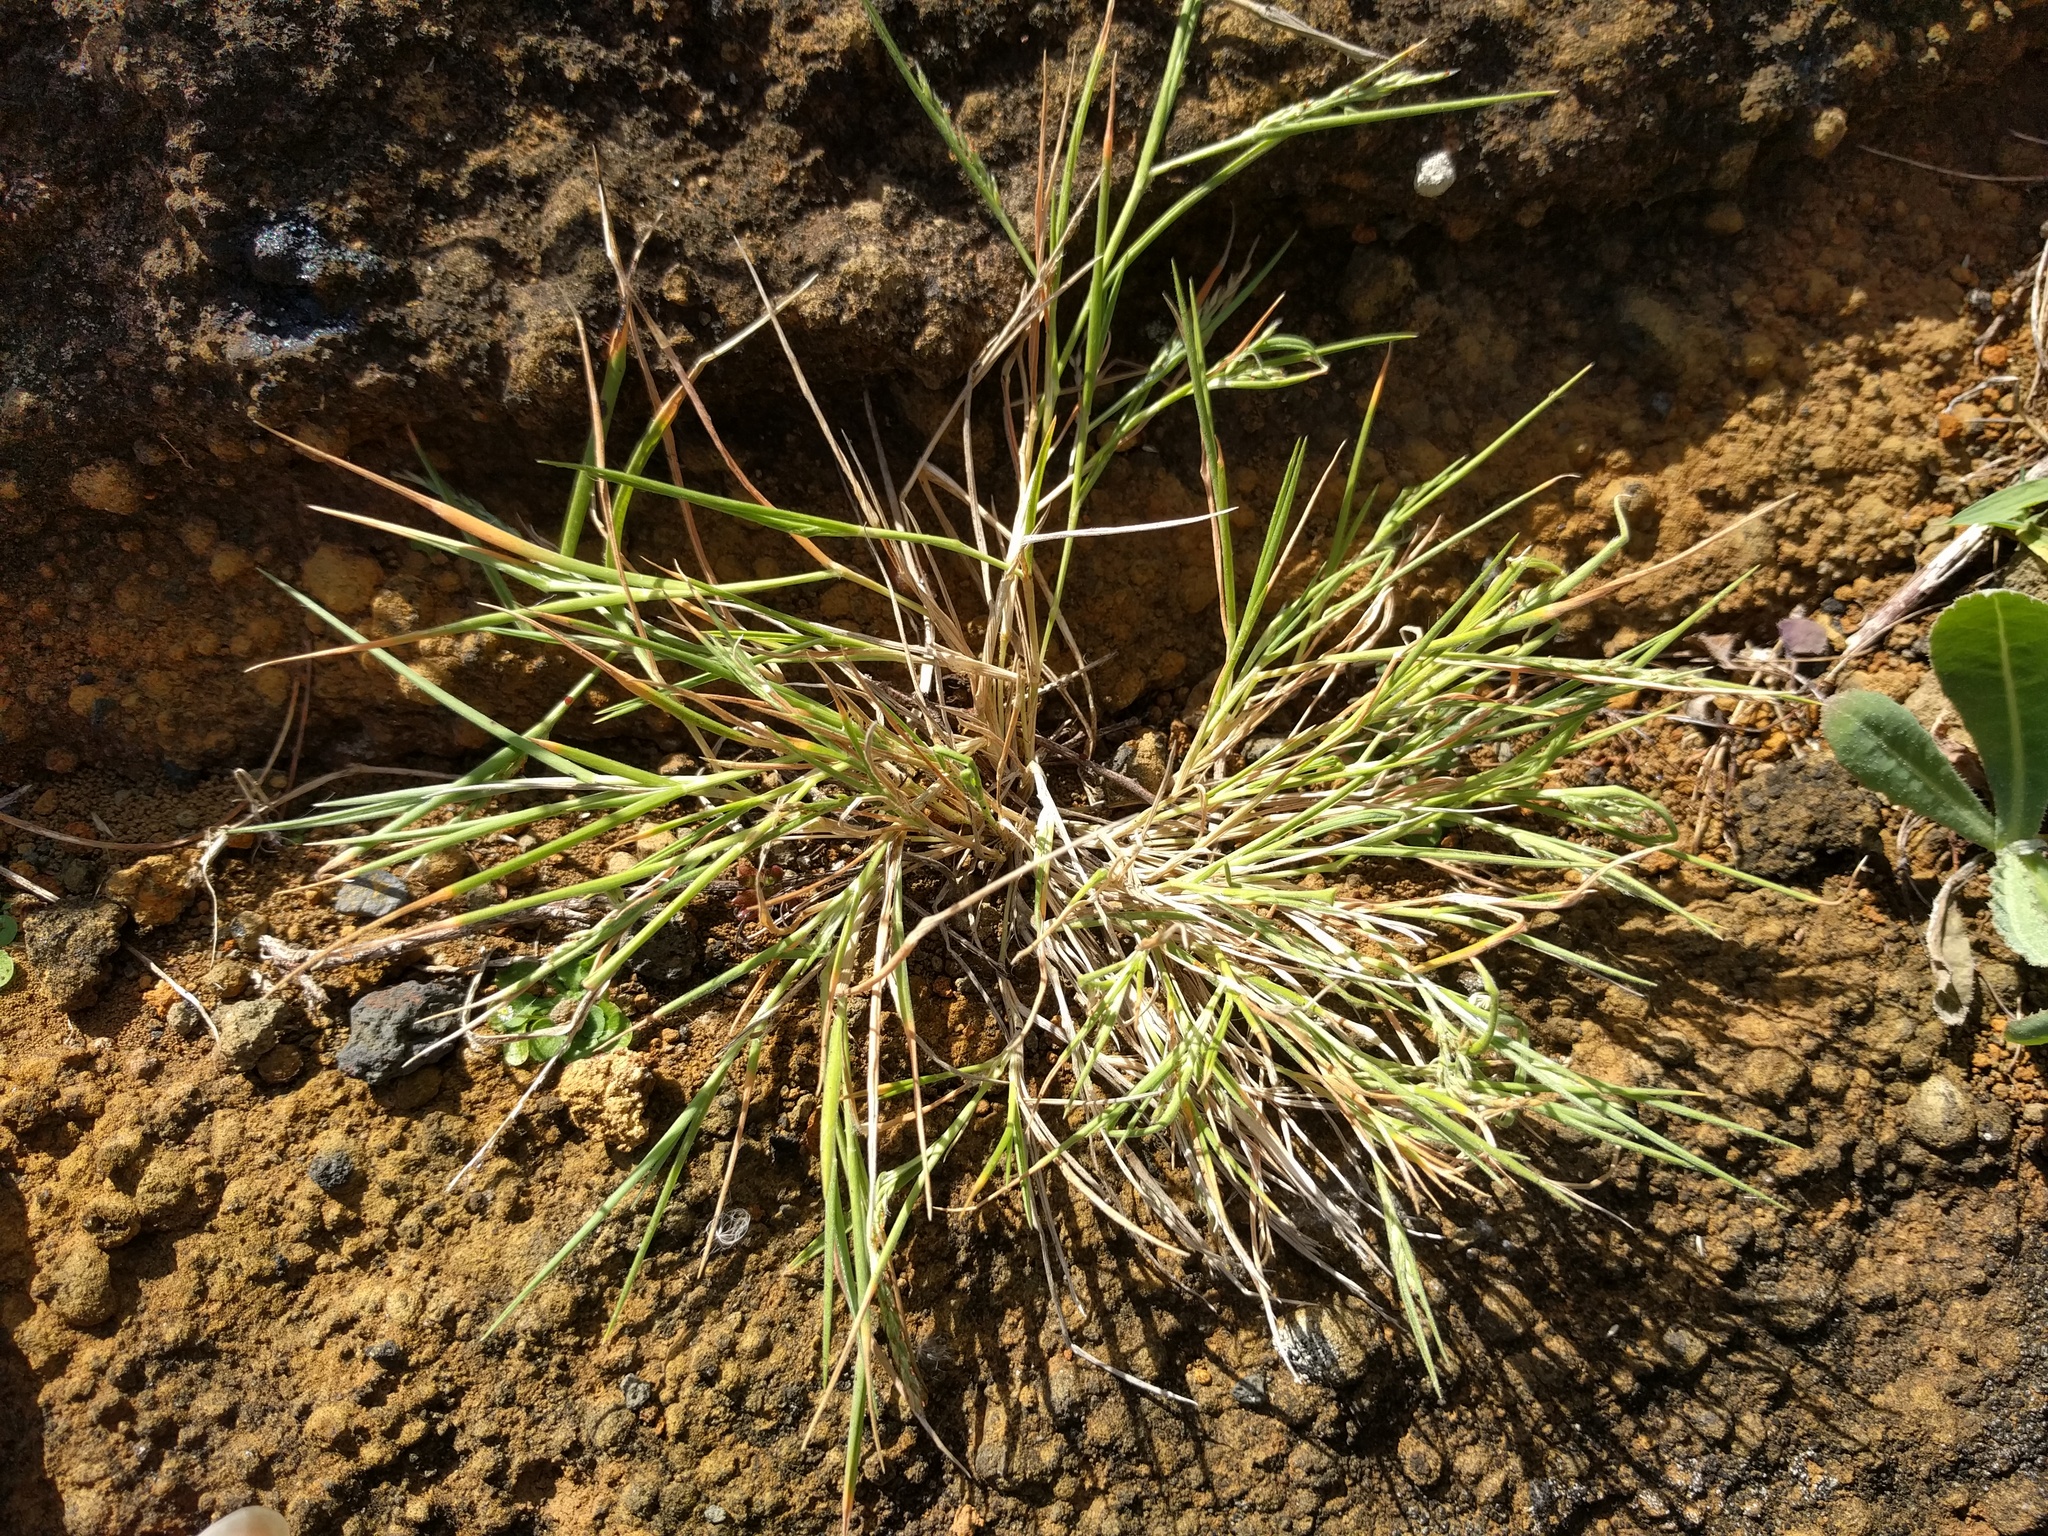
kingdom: Plantae
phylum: Tracheophyta
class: Liliopsida
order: Poales
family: Poaceae
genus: Panicum
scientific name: Panicum fauriei
